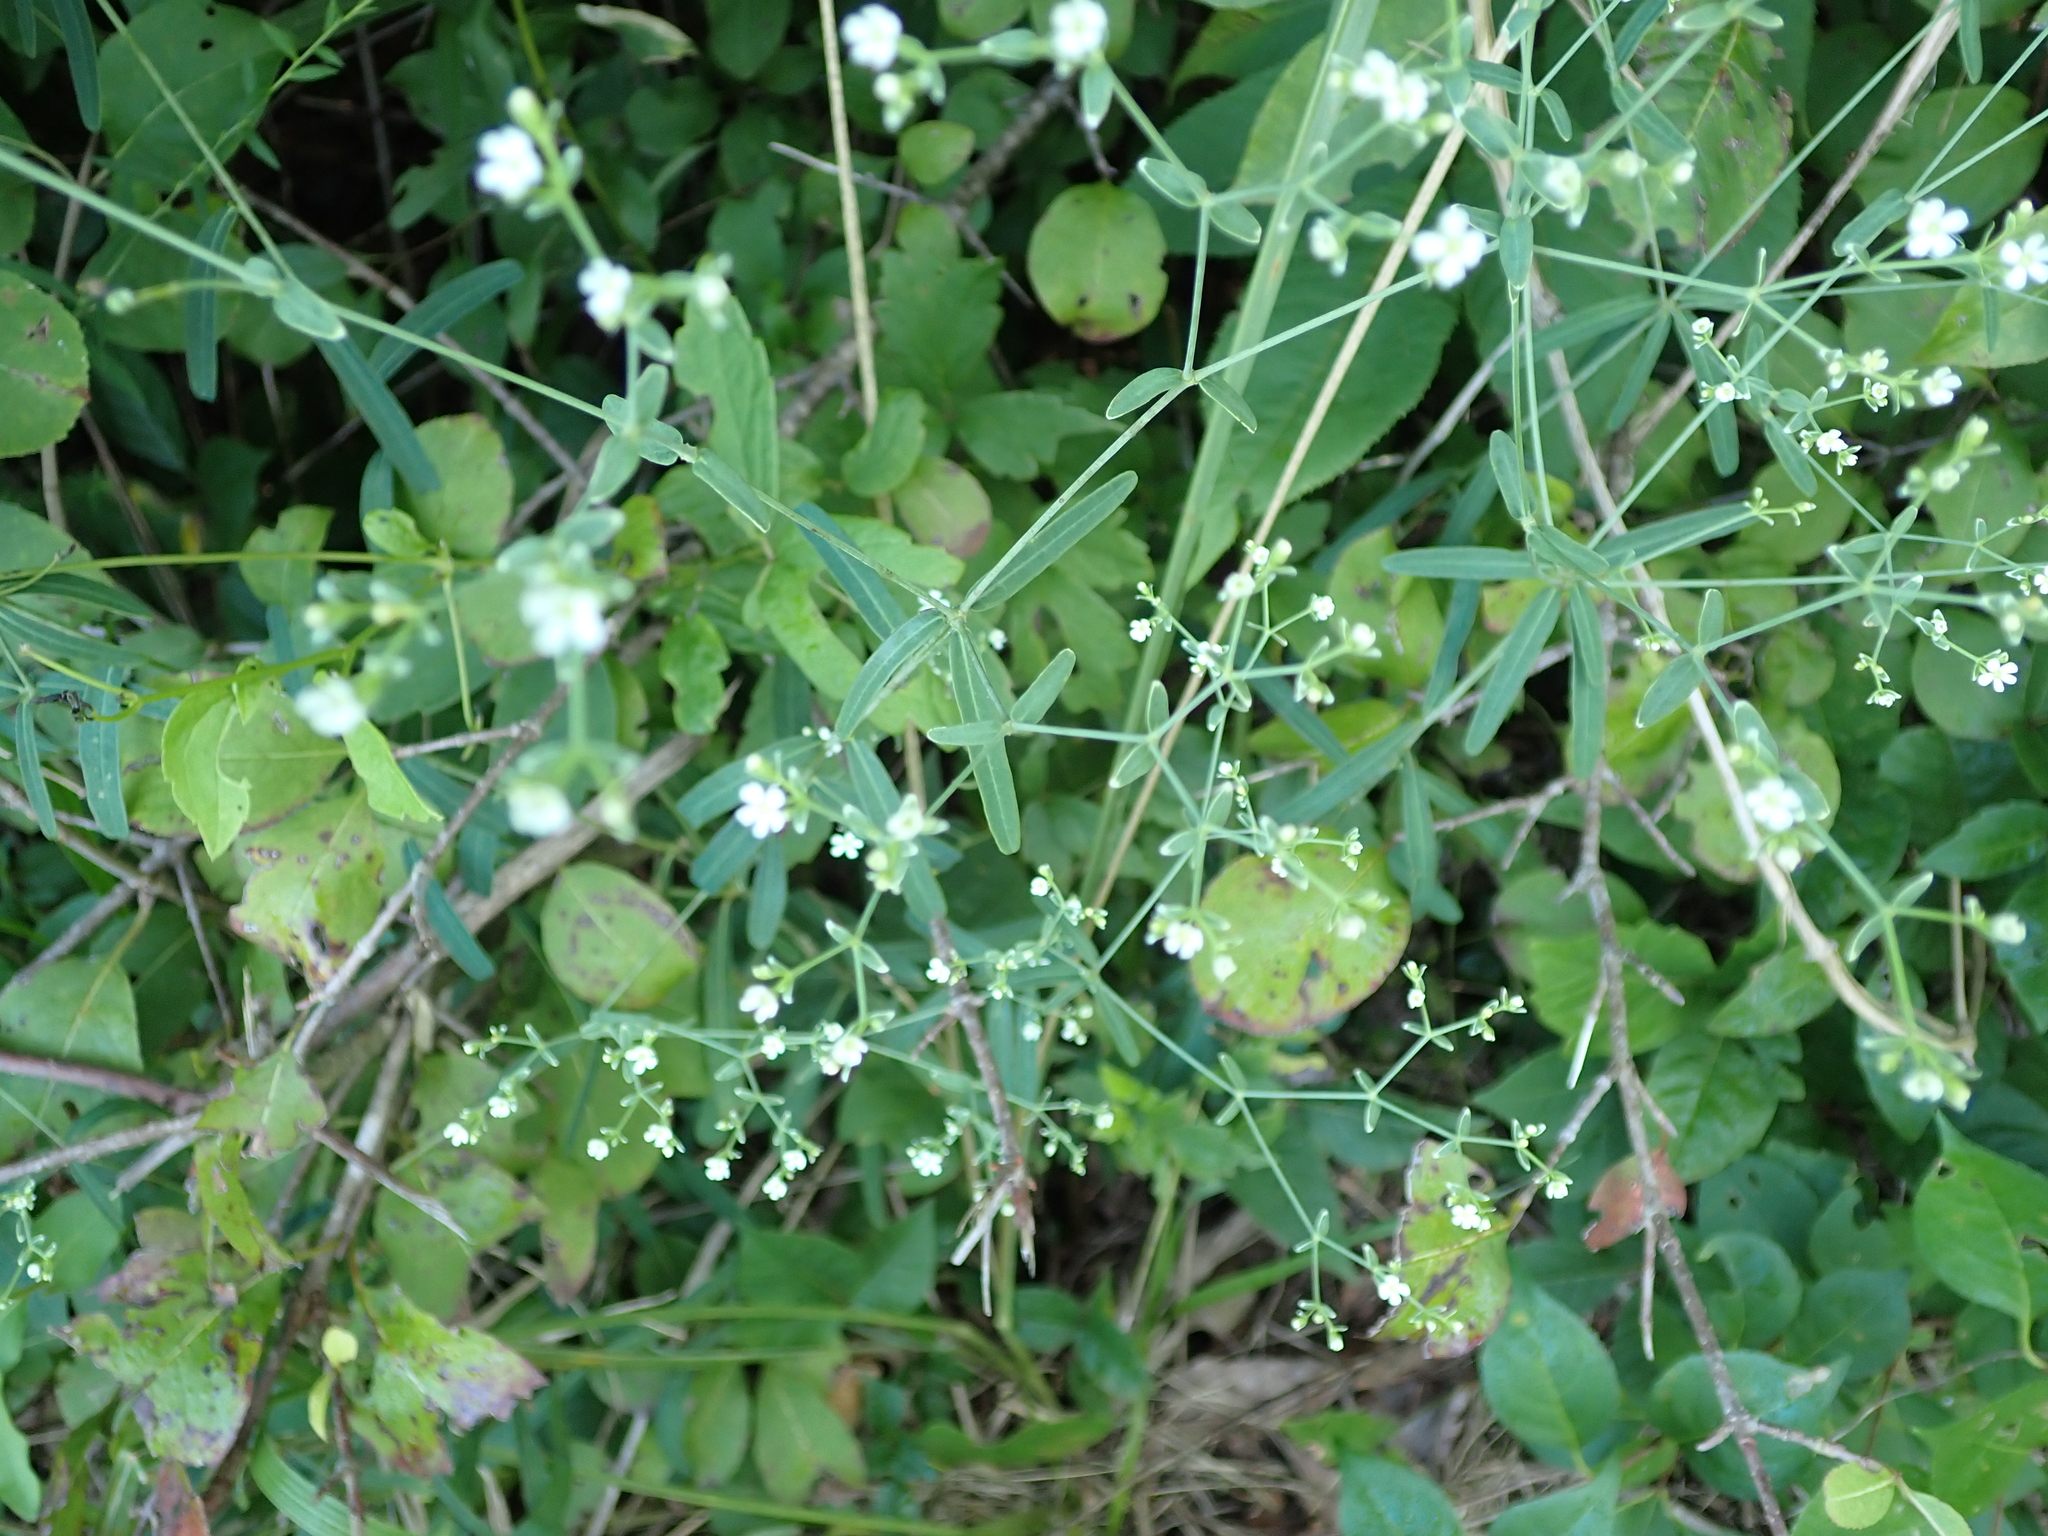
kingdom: Plantae
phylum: Tracheophyta
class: Magnoliopsida
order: Malpighiales
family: Euphorbiaceae
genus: Euphorbia
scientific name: Euphorbia corollata
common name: Flowering spurge
